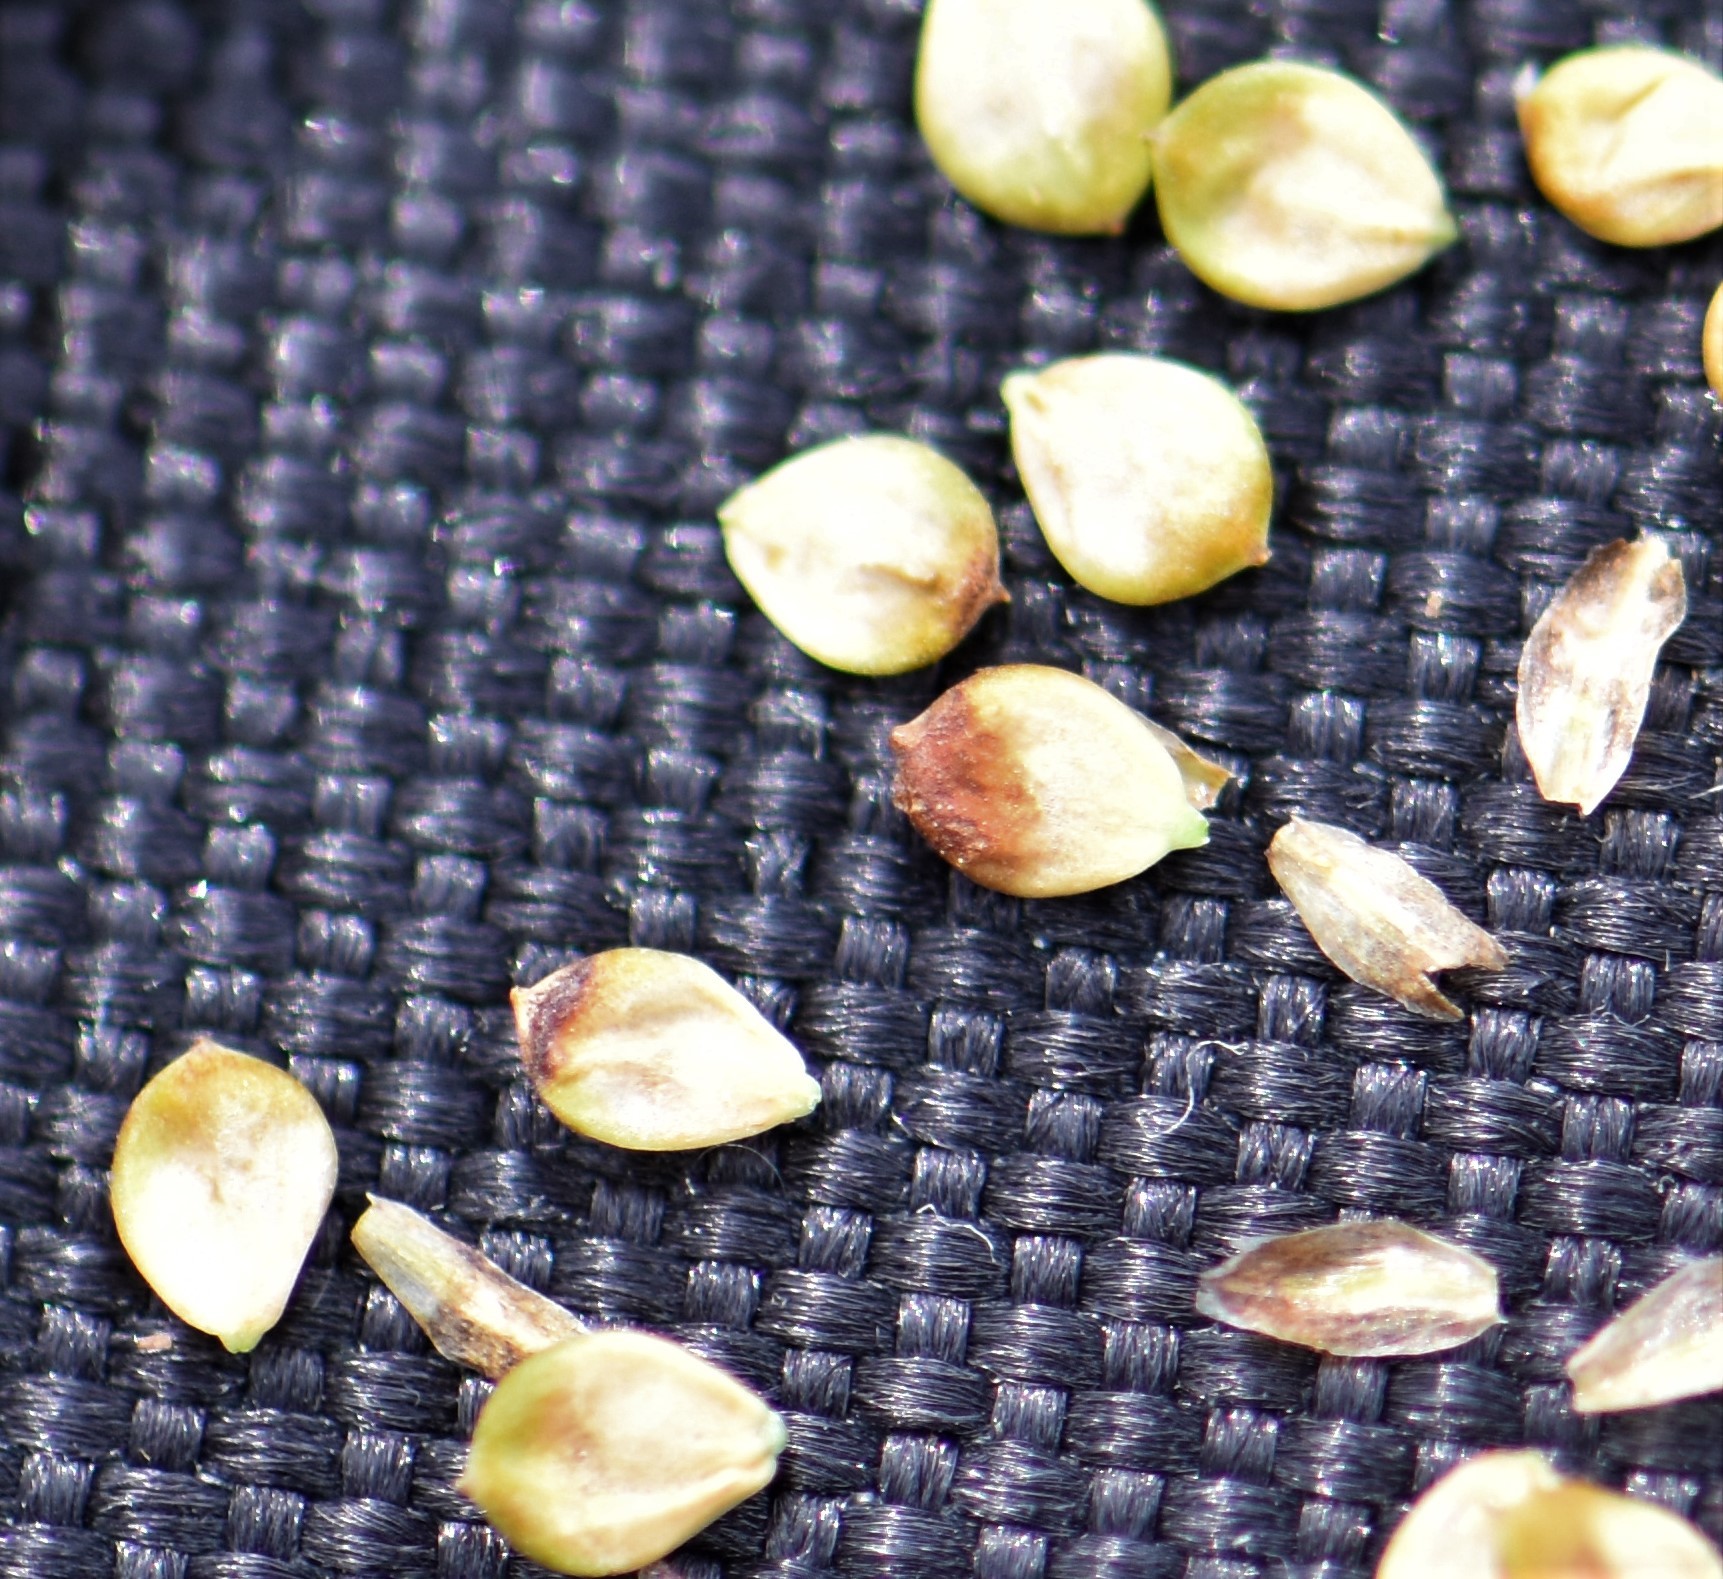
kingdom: Plantae
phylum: Tracheophyta
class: Liliopsida
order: Poales
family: Cyperaceae
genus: Carex
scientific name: Carex aquatilis
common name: Water sedge
